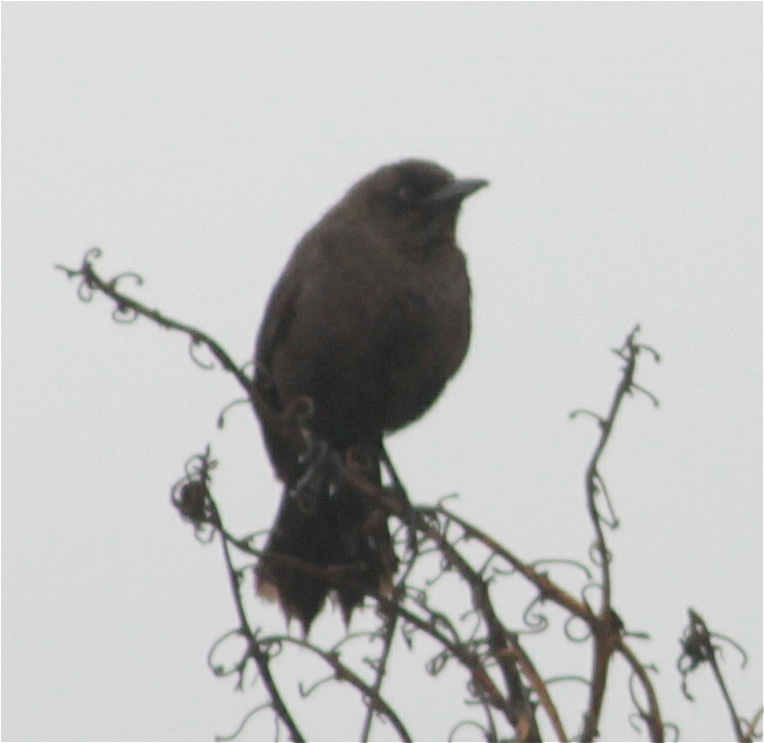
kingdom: Animalia
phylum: Chordata
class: Aves
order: Passeriformes
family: Icteridae
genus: Quiscalus
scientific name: Quiscalus lugubris
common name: Carib grackle
